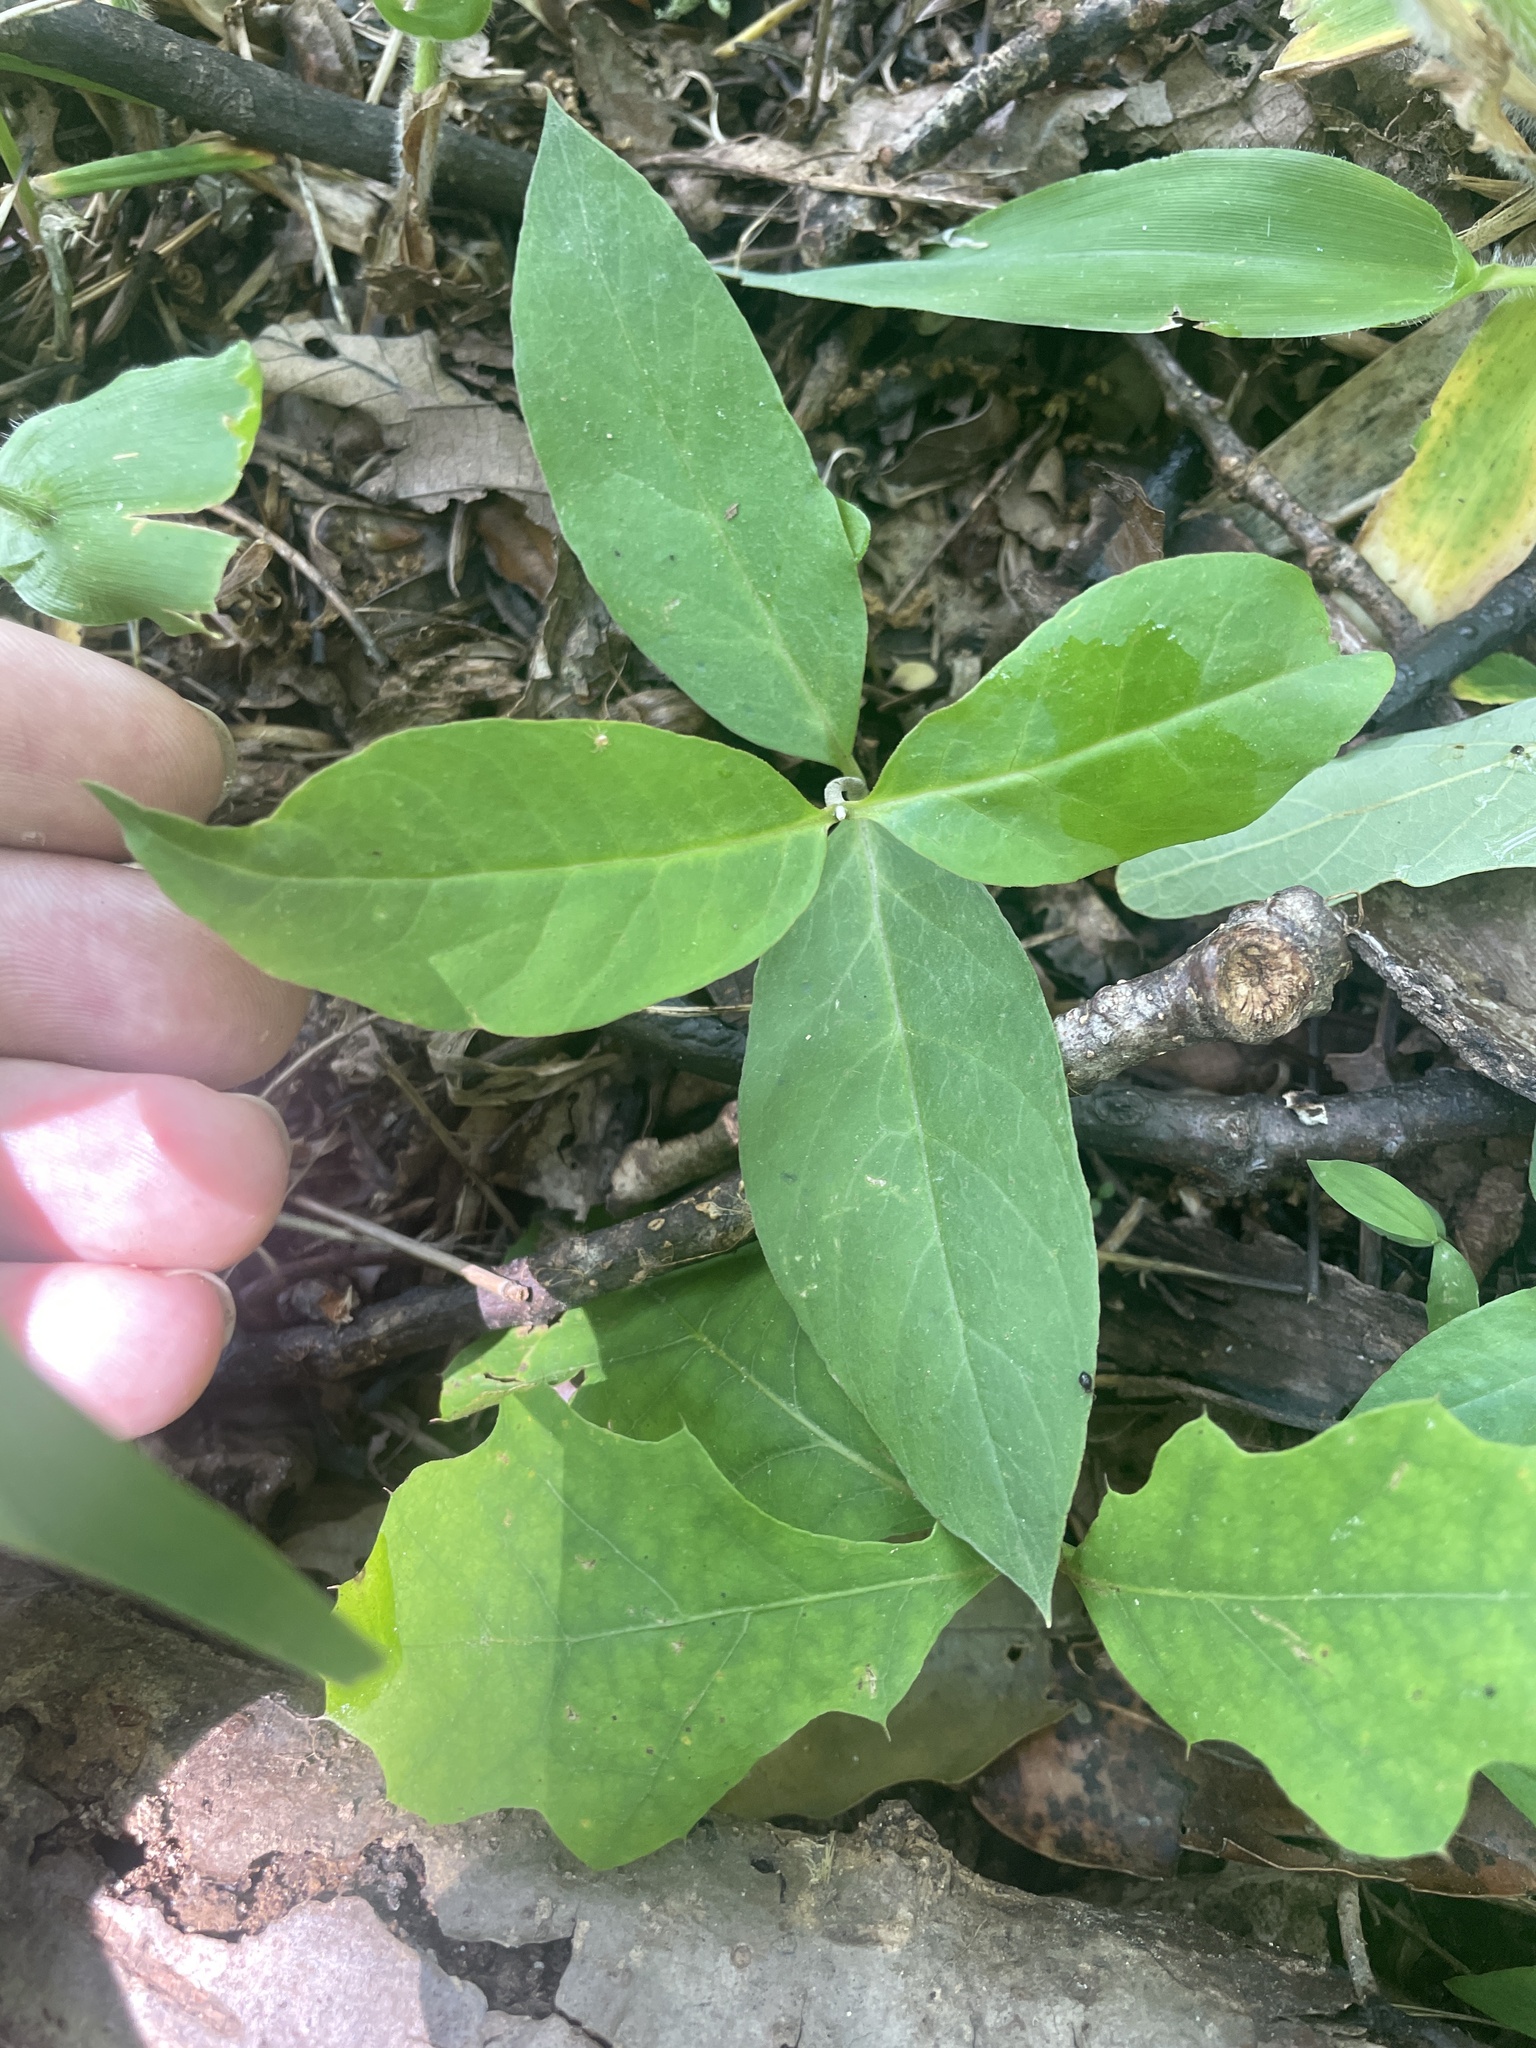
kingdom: Plantae
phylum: Tracheophyta
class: Magnoliopsida
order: Ericales
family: Primulaceae
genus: Lysimachia
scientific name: Lysimachia fraseri
